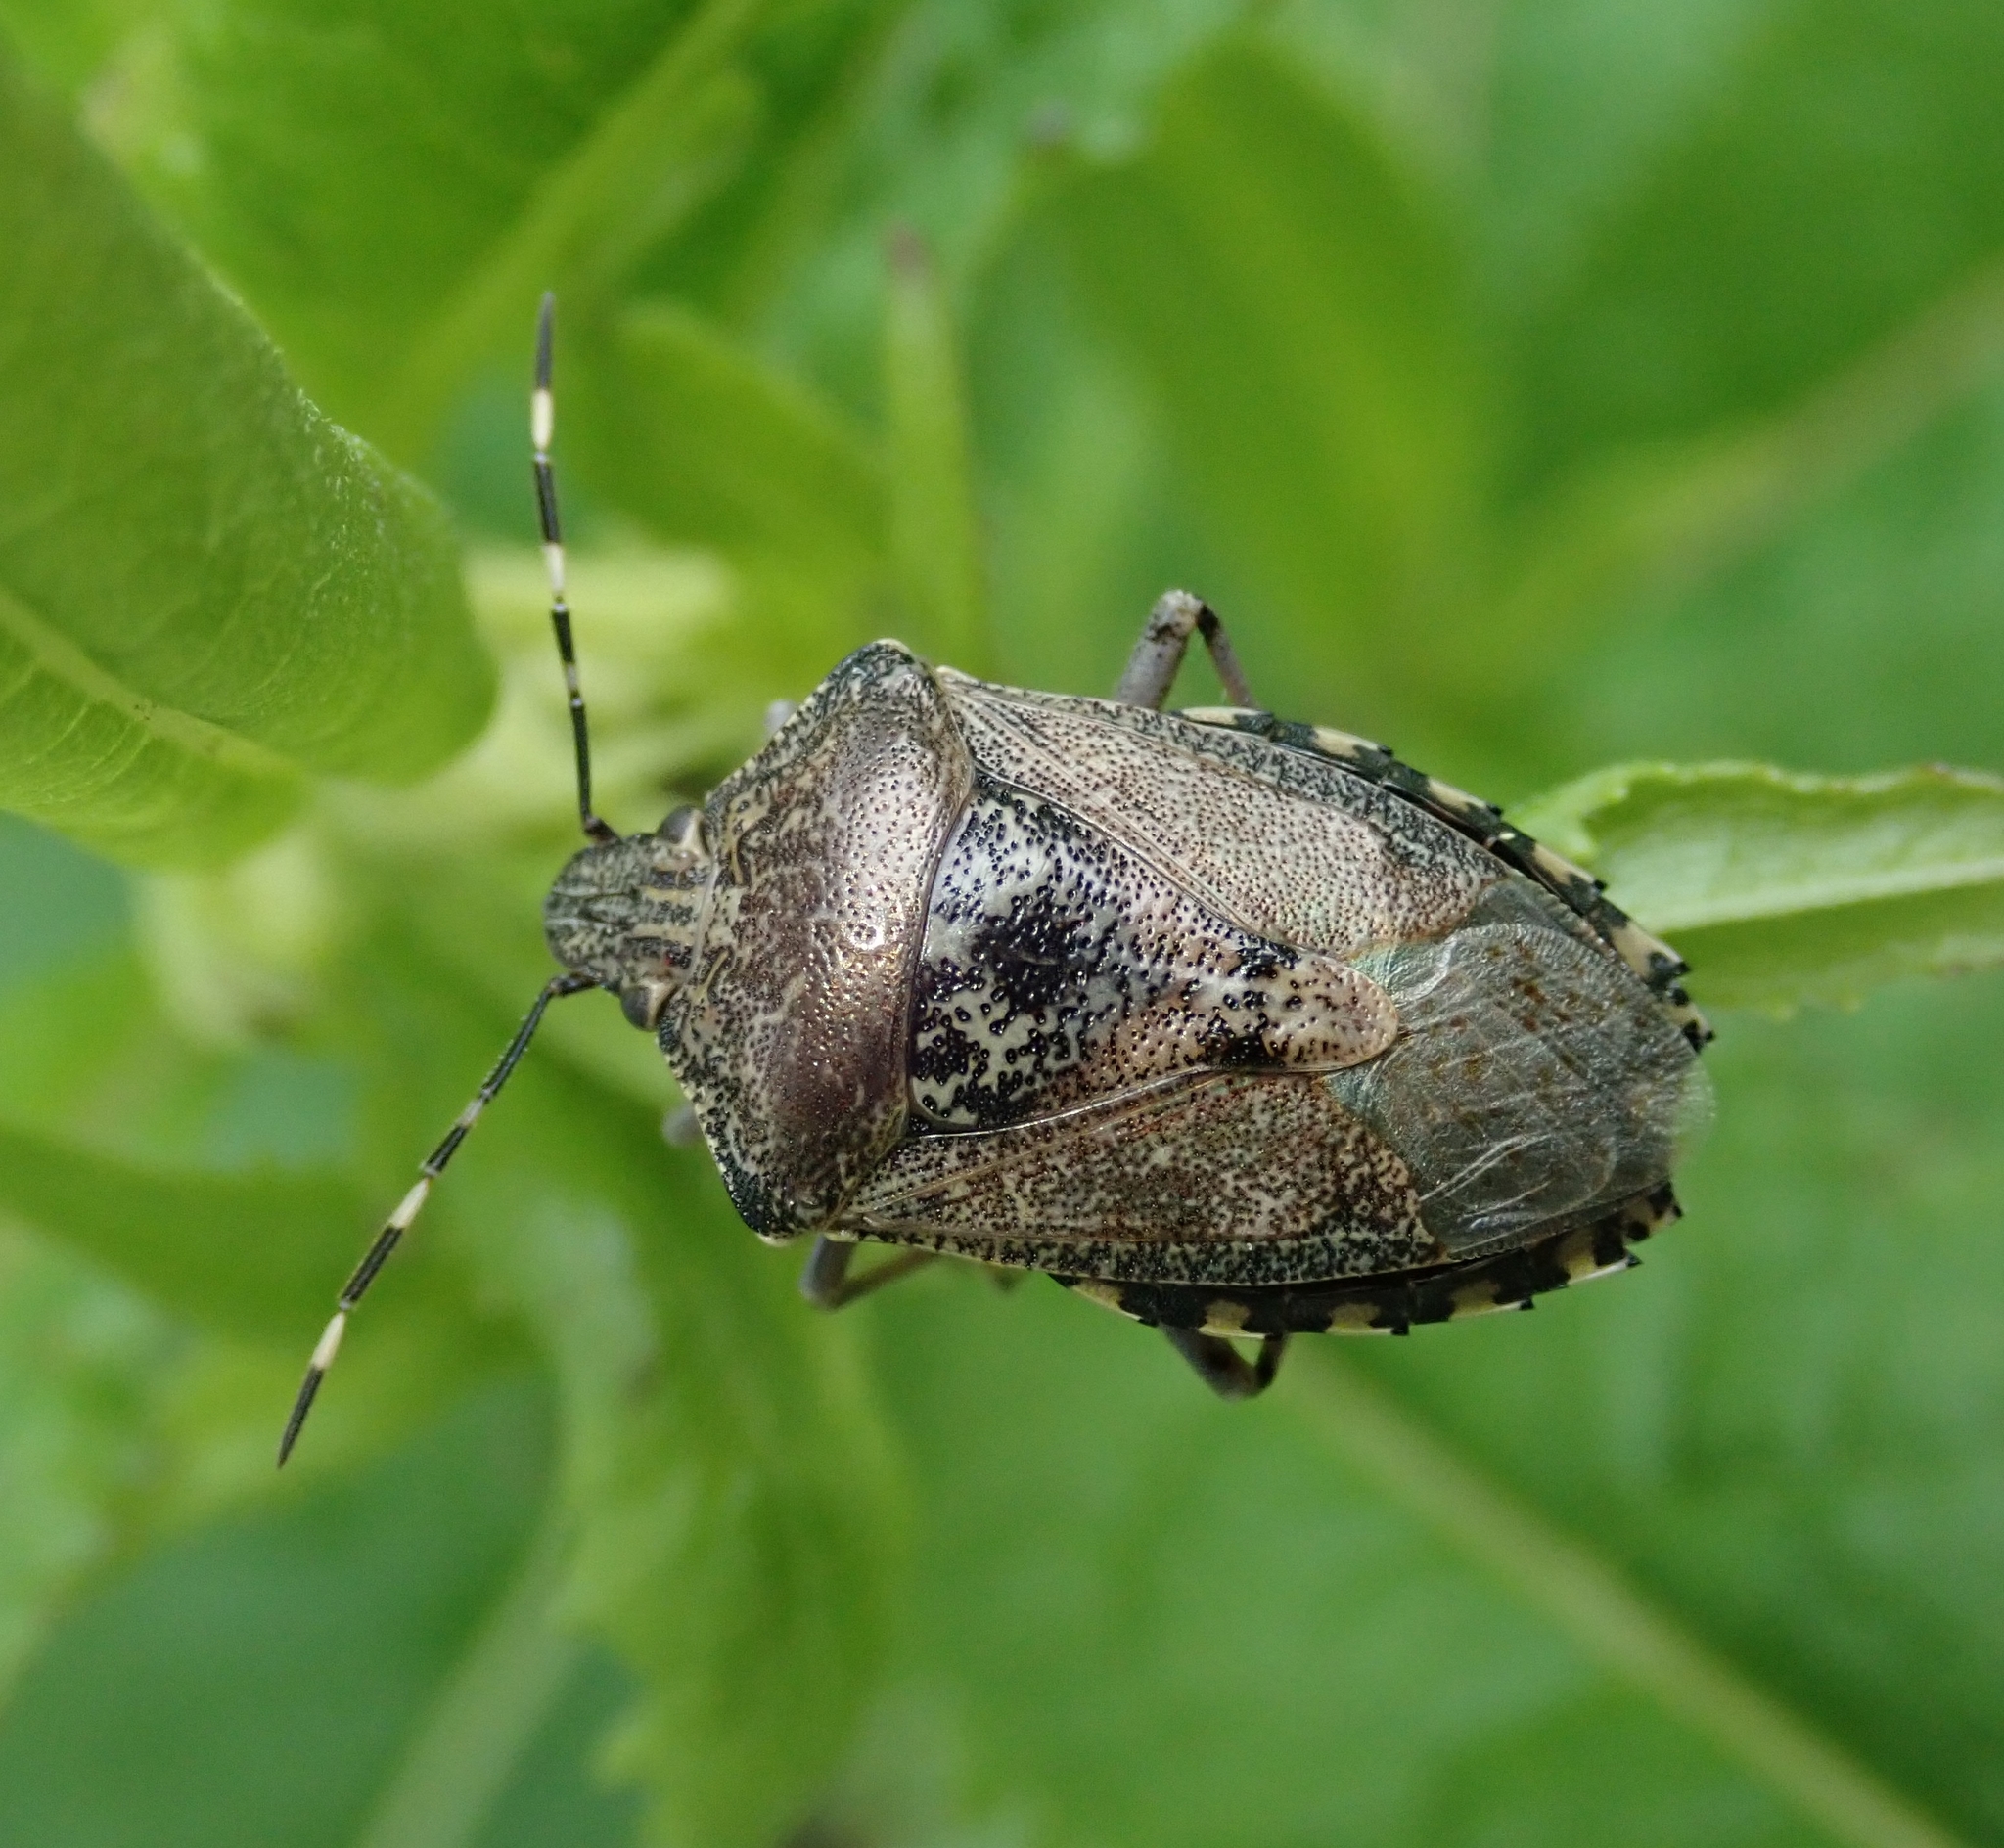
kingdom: Animalia
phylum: Arthropoda
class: Insecta
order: Hemiptera
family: Pentatomidae
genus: Rhaphigaster
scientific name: Rhaphigaster nebulosa
